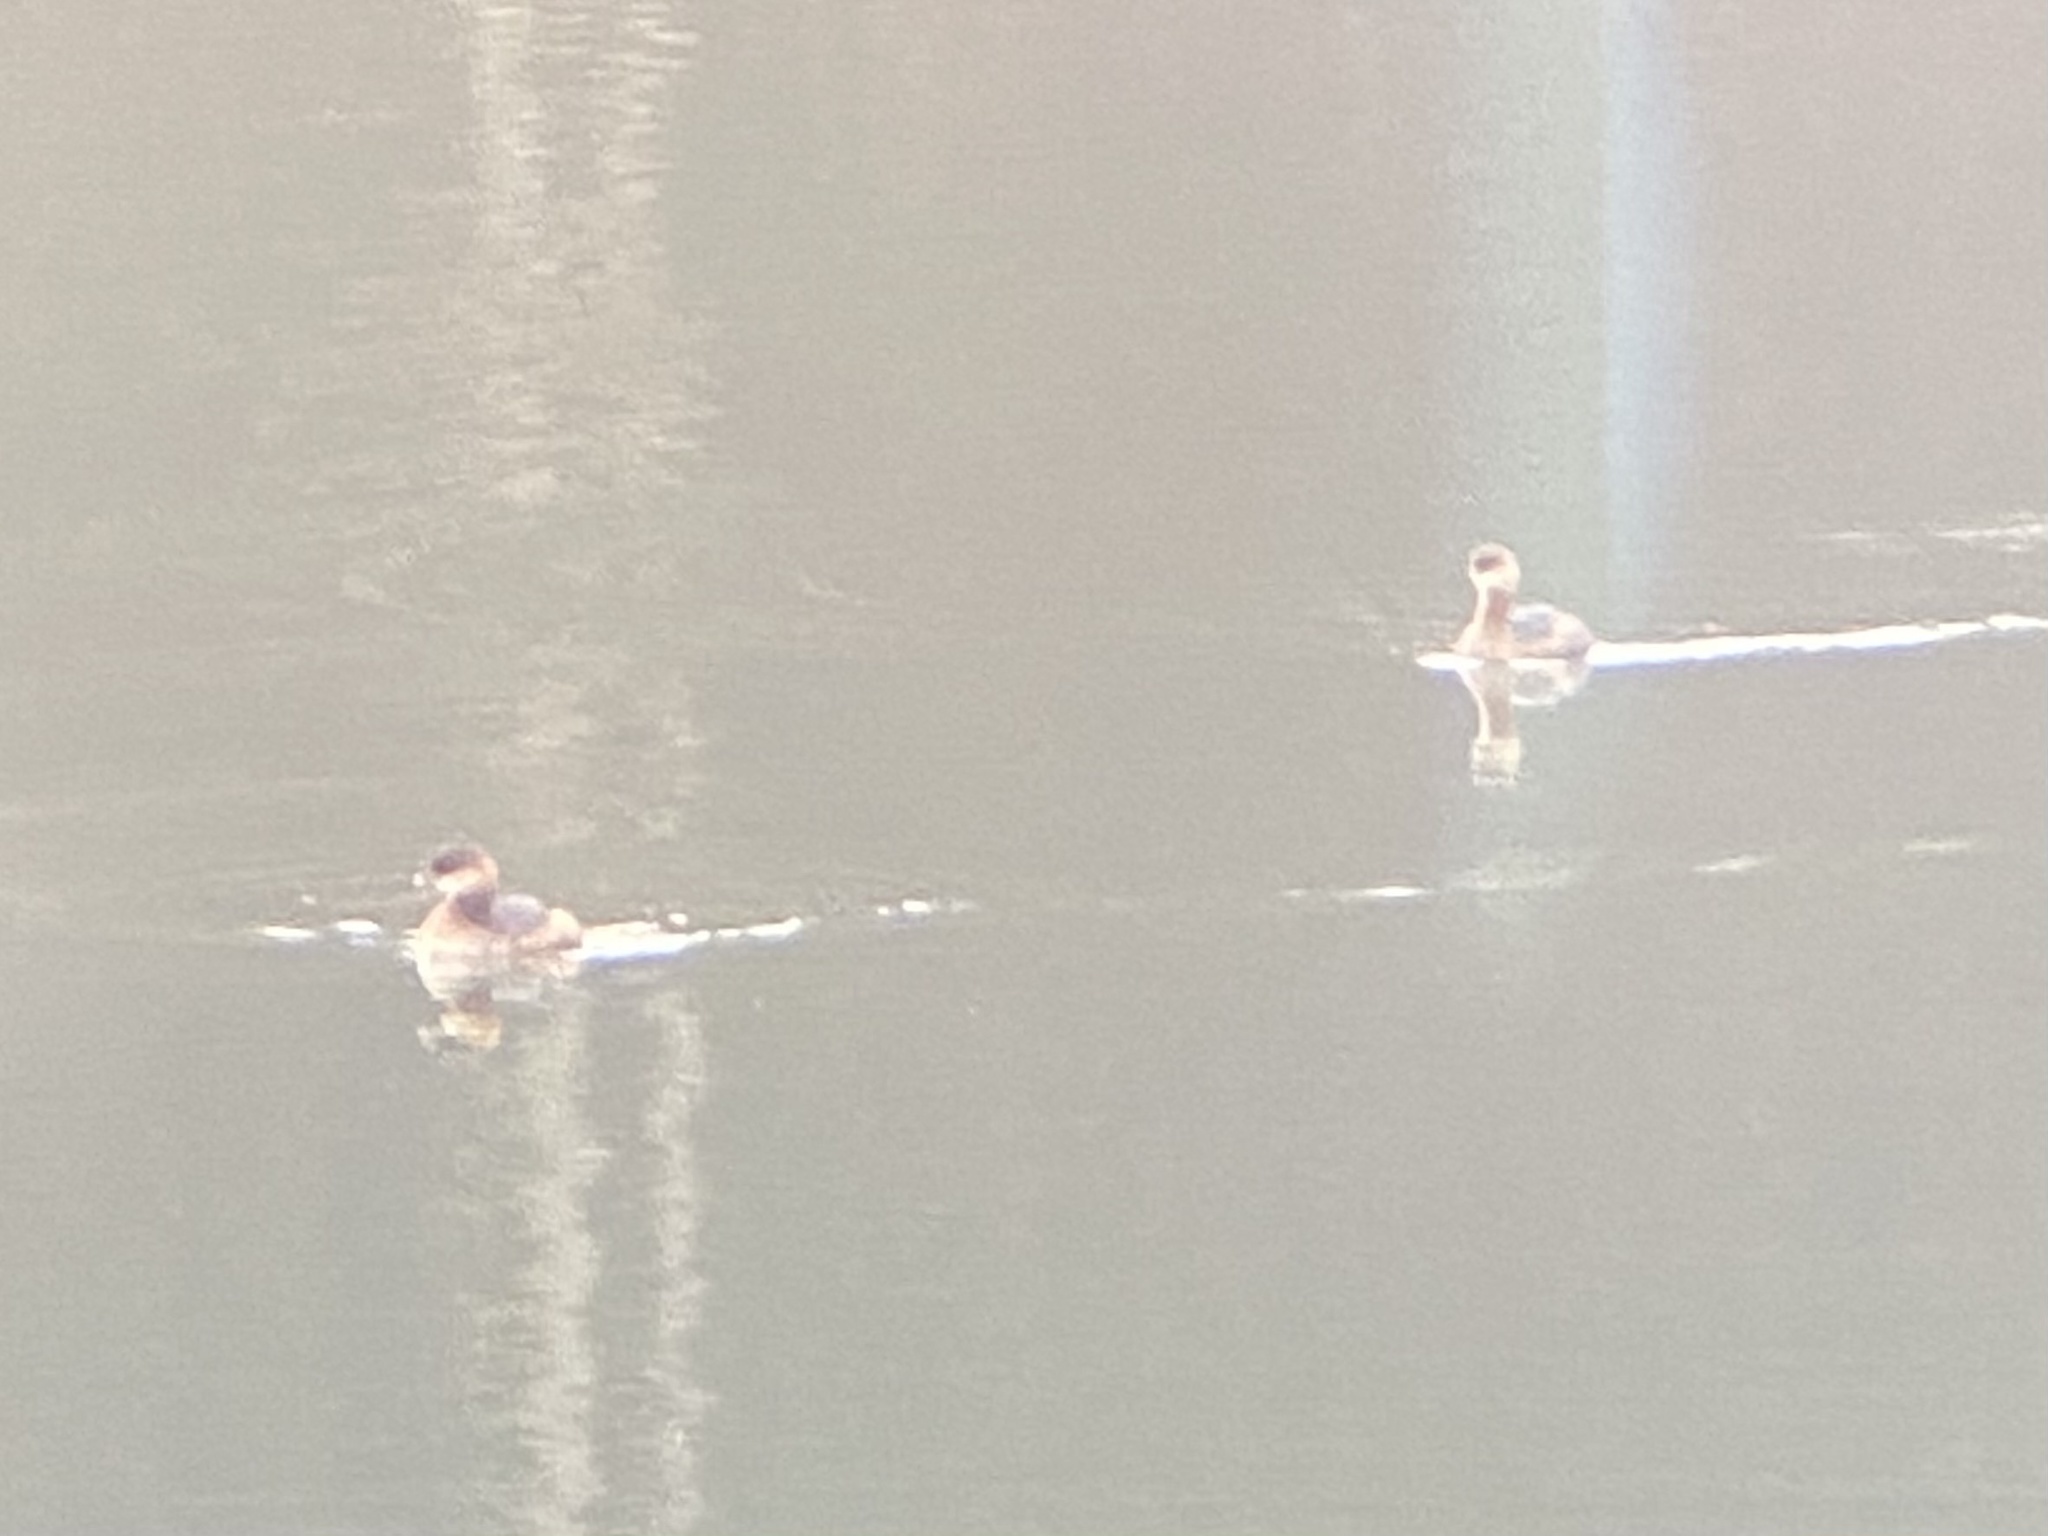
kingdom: Animalia
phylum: Chordata
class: Aves
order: Podicipediformes
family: Podicipedidae
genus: Podilymbus
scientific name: Podilymbus podiceps
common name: Pied-billed grebe
